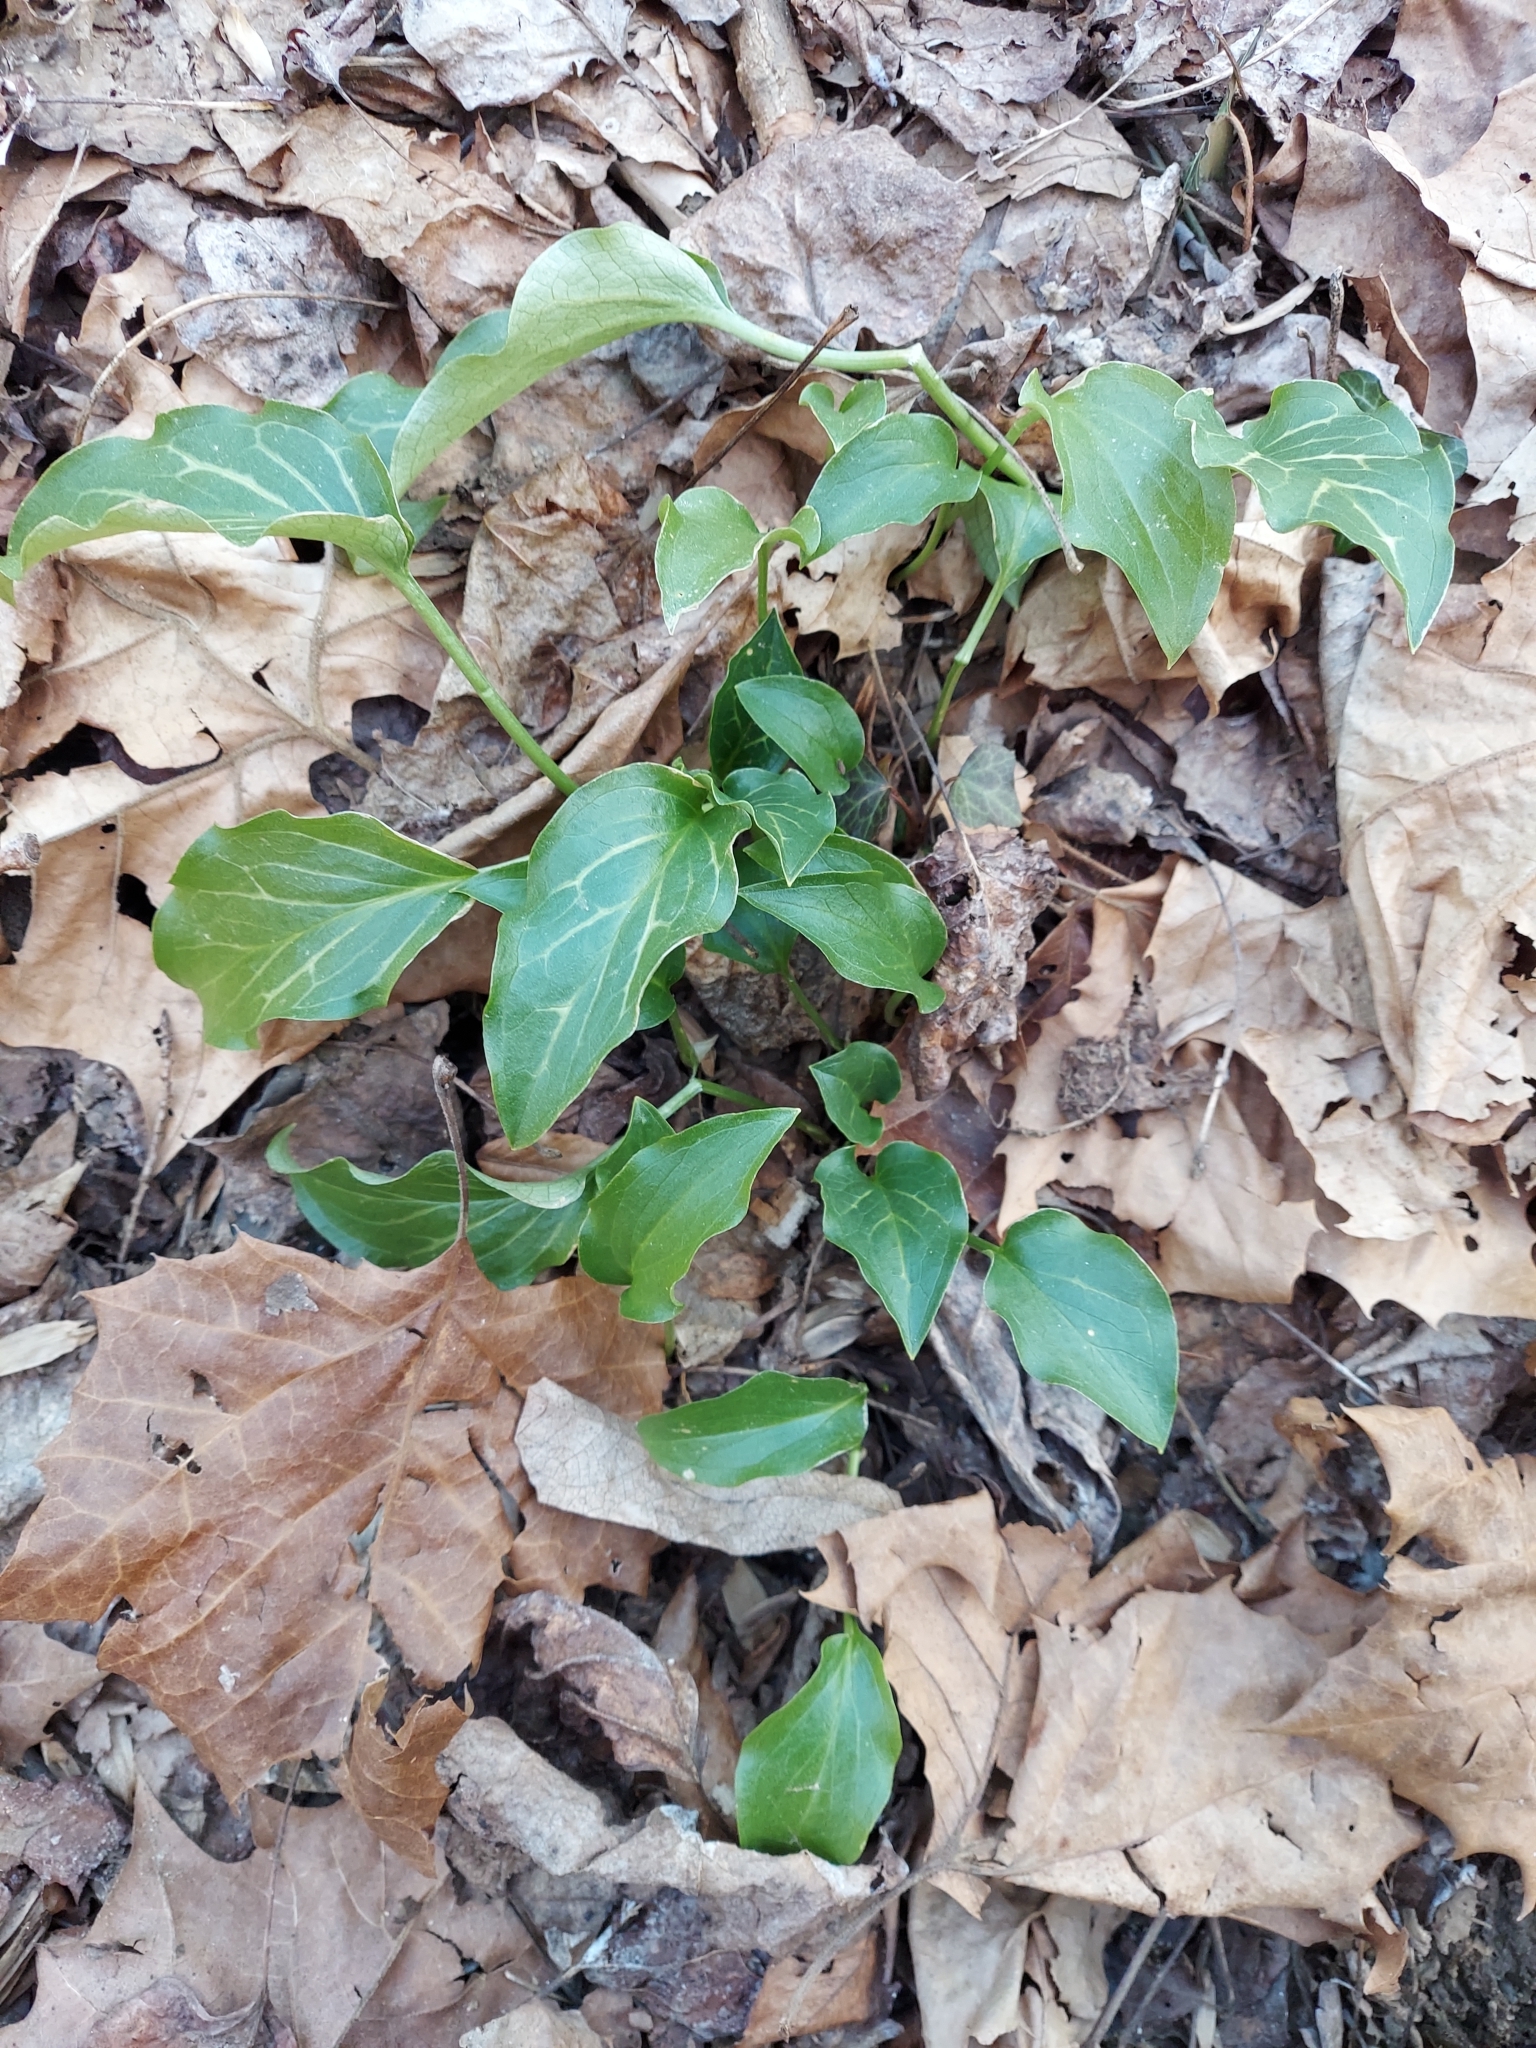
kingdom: Plantae
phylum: Tracheophyta
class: Liliopsida
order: Alismatales
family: Araceae
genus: Arum
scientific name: Arum italicum
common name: Italian lords-and-ladies
